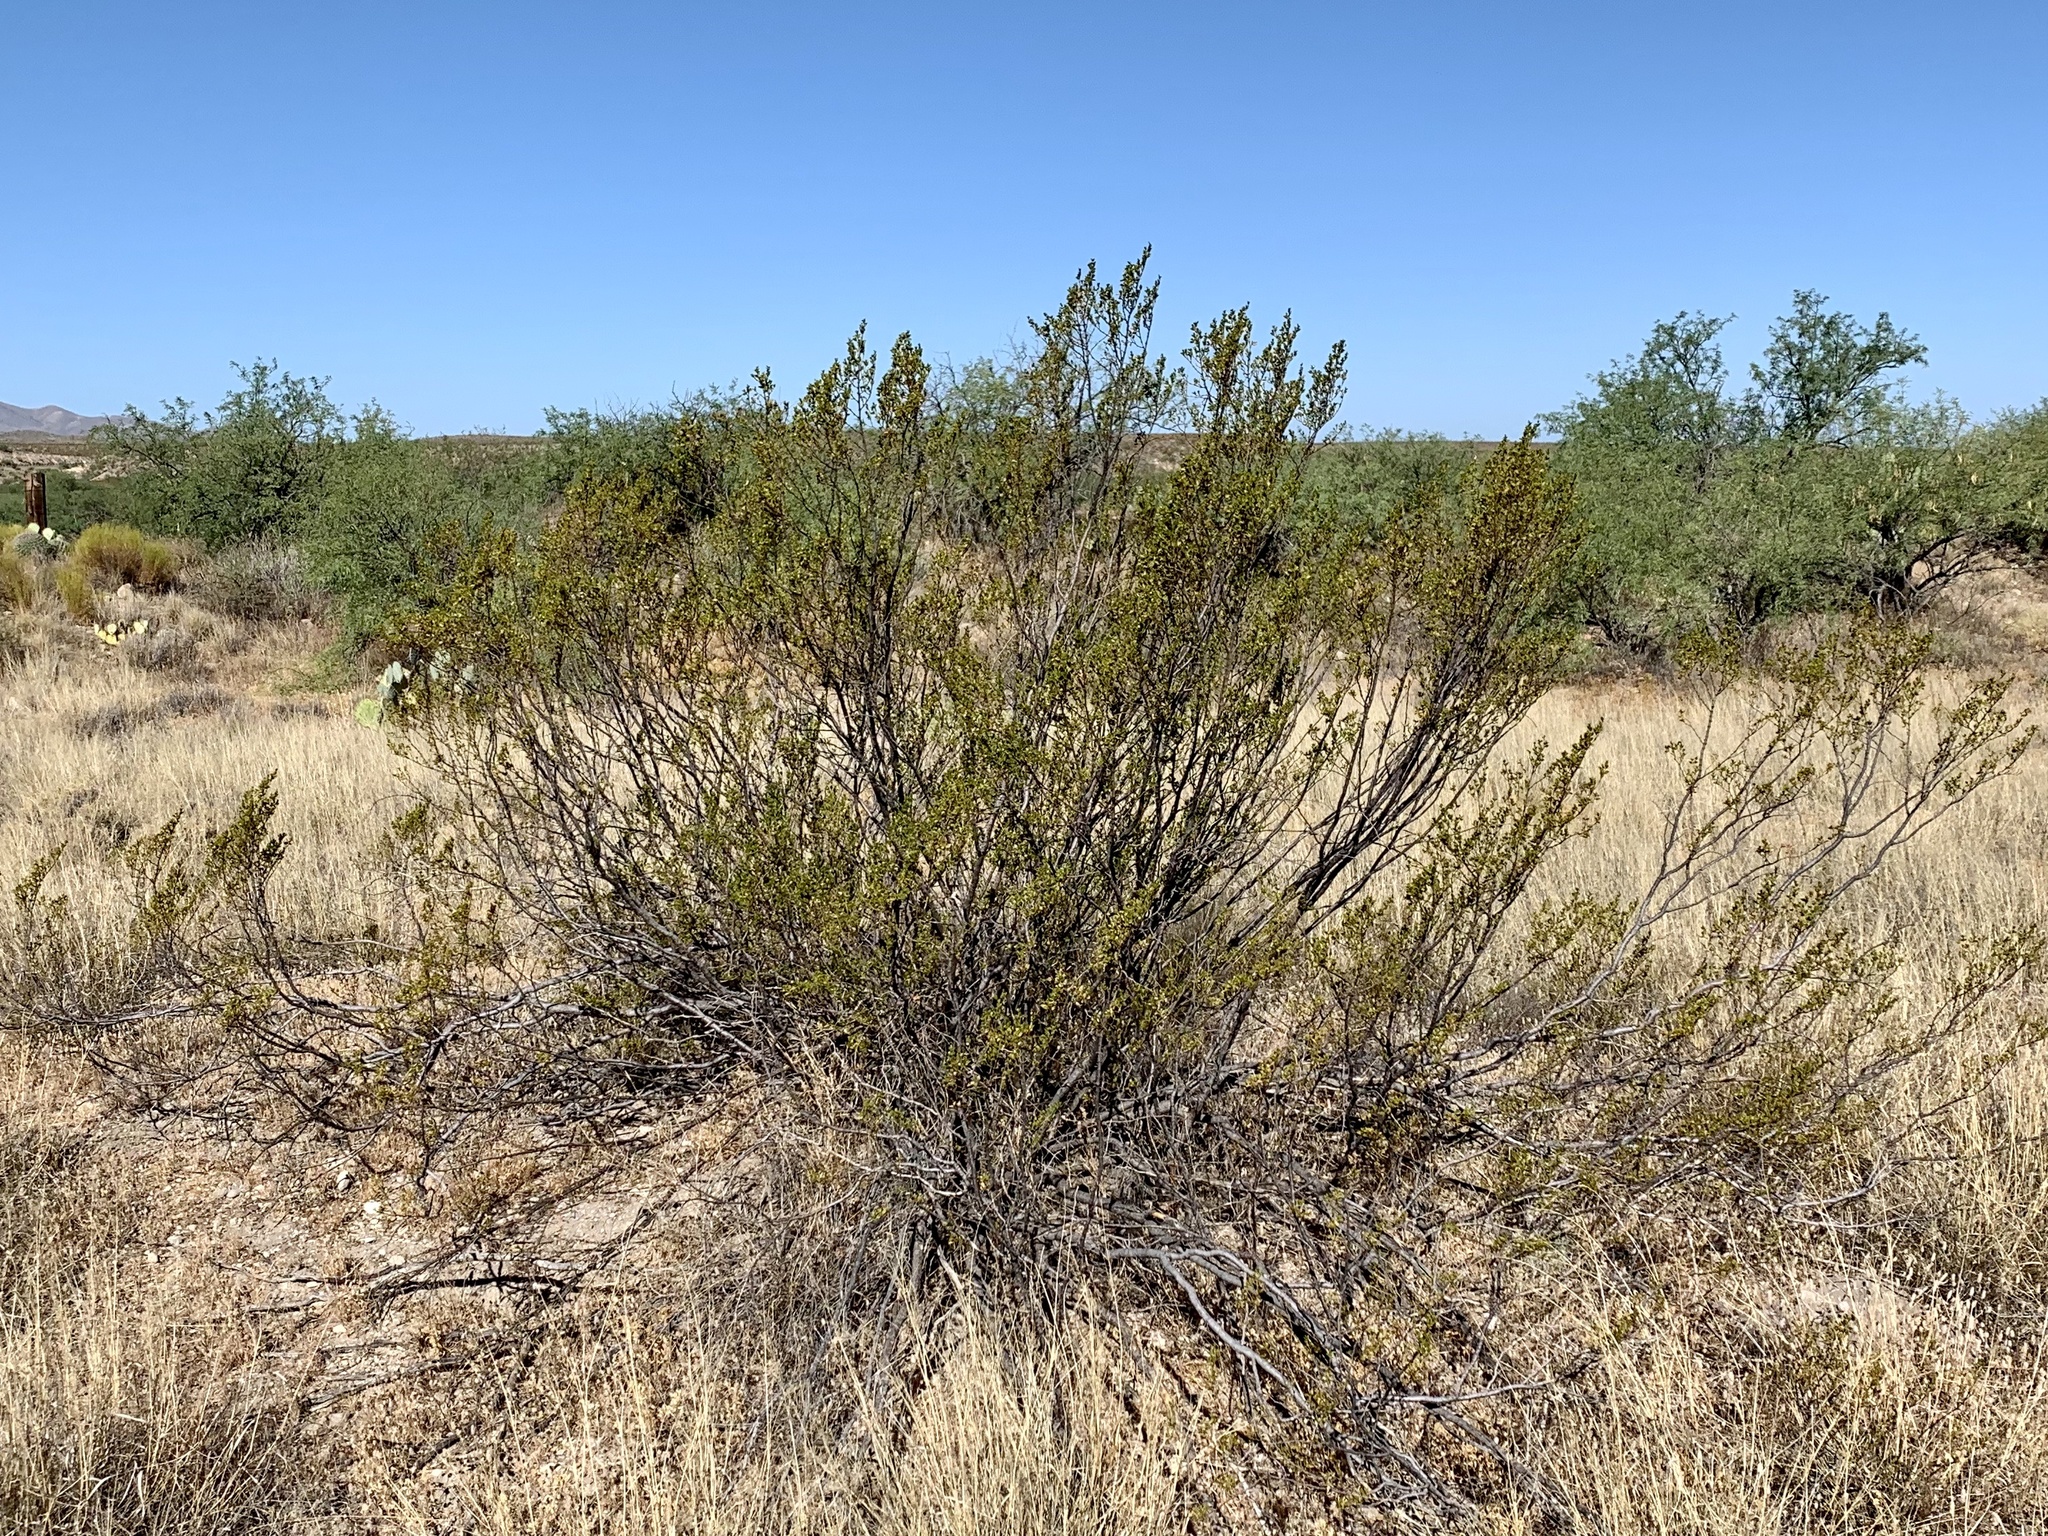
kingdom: Plantae
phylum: Tracheophyta
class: Magnoliopsida
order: Zygophyllales
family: Zygophyllaceae
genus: Larrea
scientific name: Larrea tridentata
